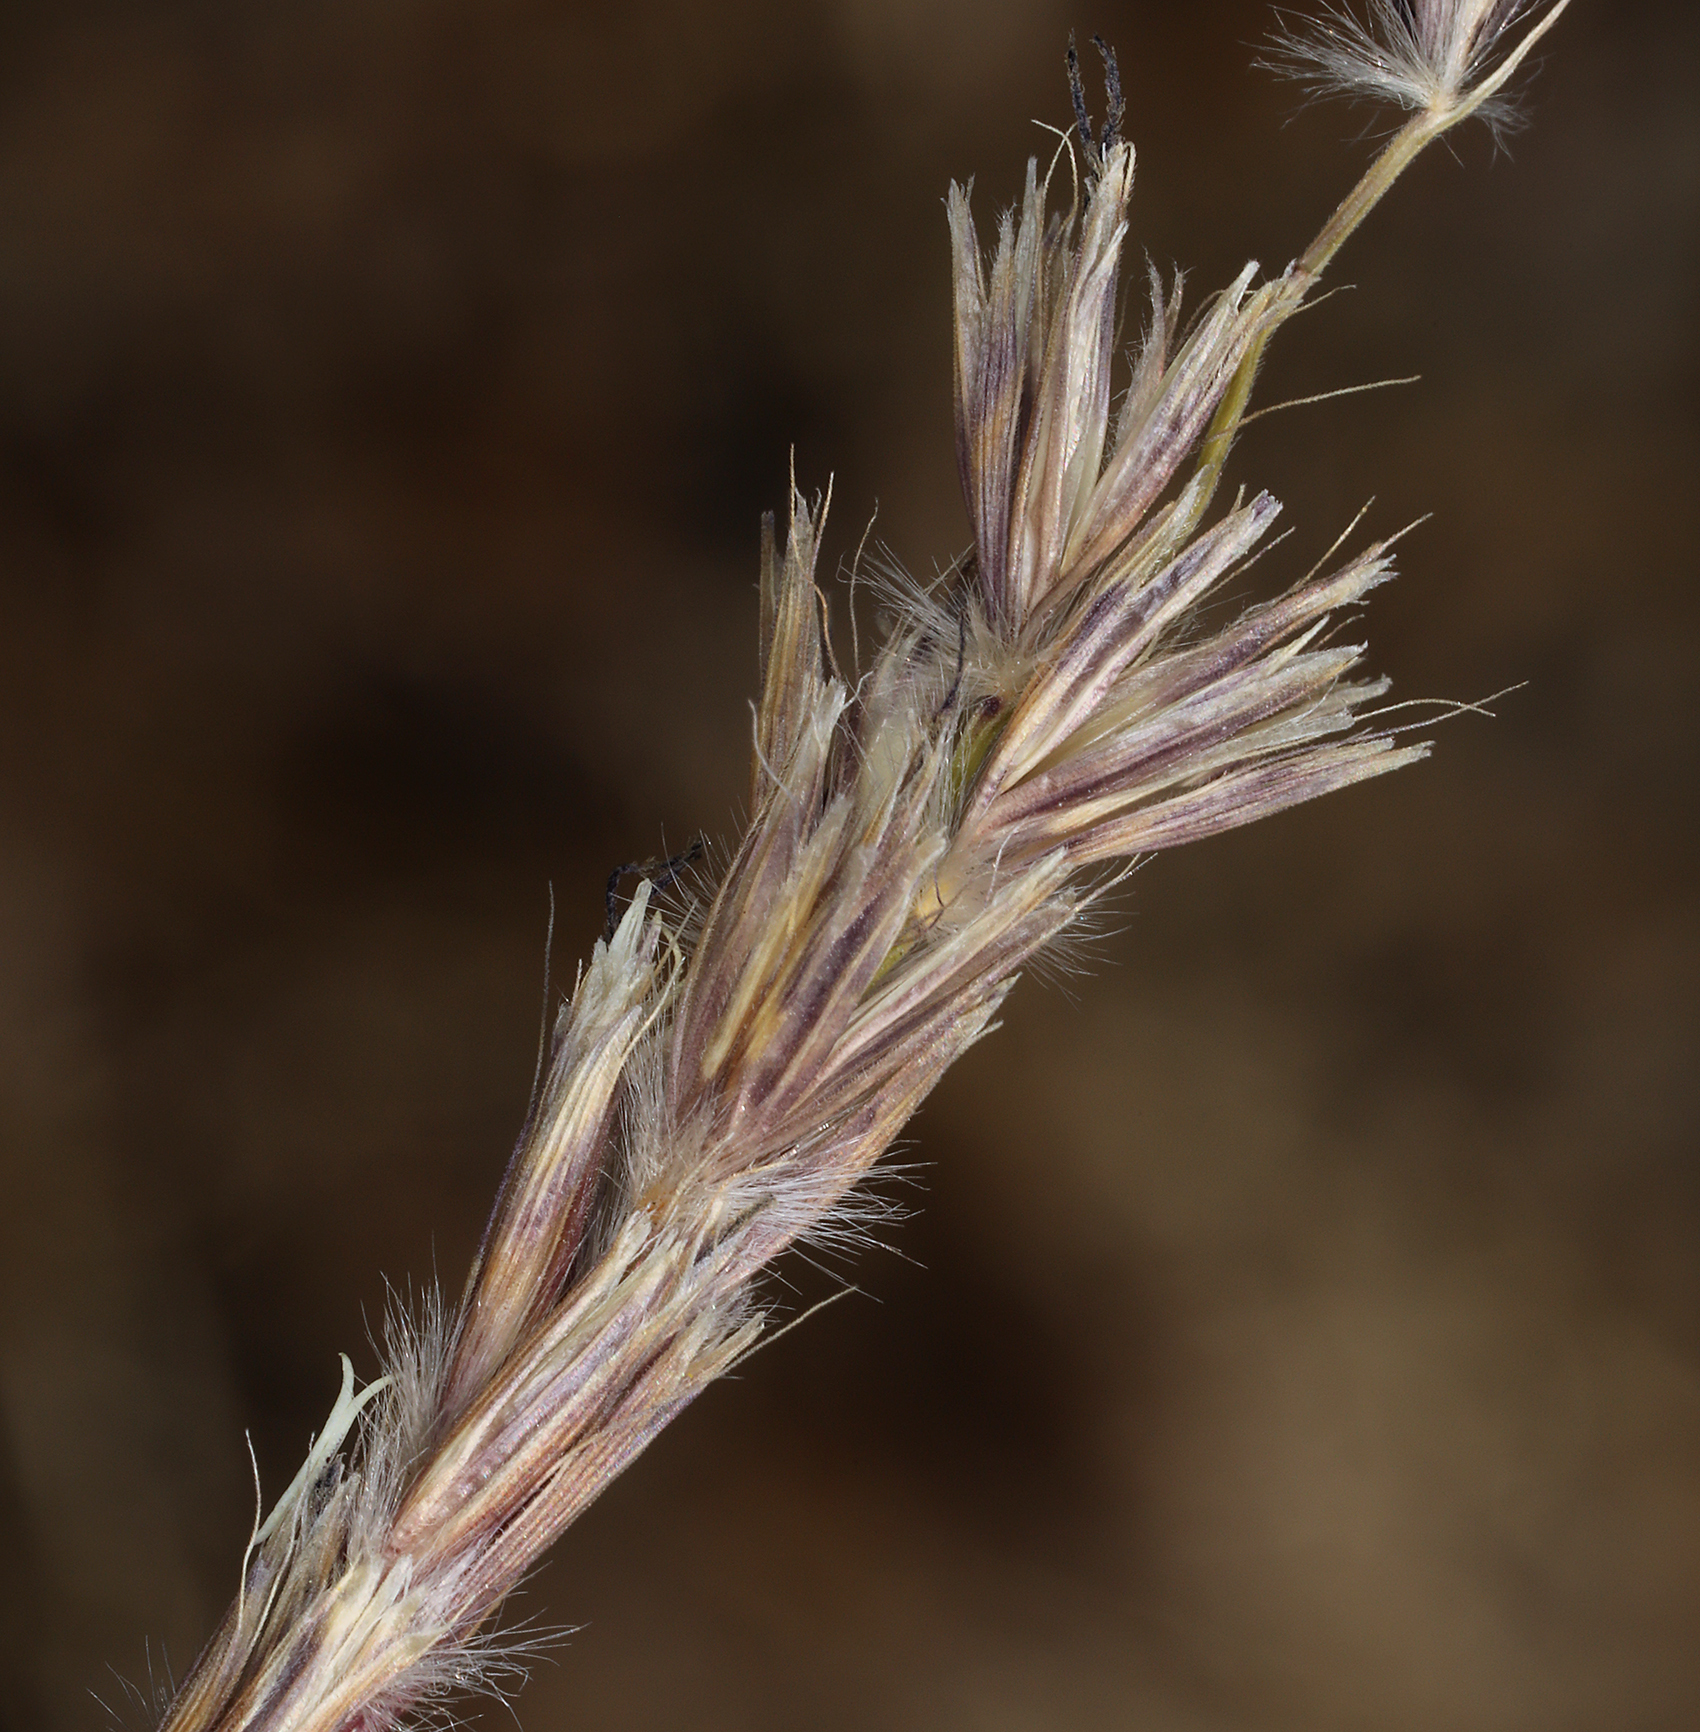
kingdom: Plantae
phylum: Tracheophyta
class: Liliopsida
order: Poales
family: Poaceae
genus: Hilaria
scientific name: Hilaria jamesii
